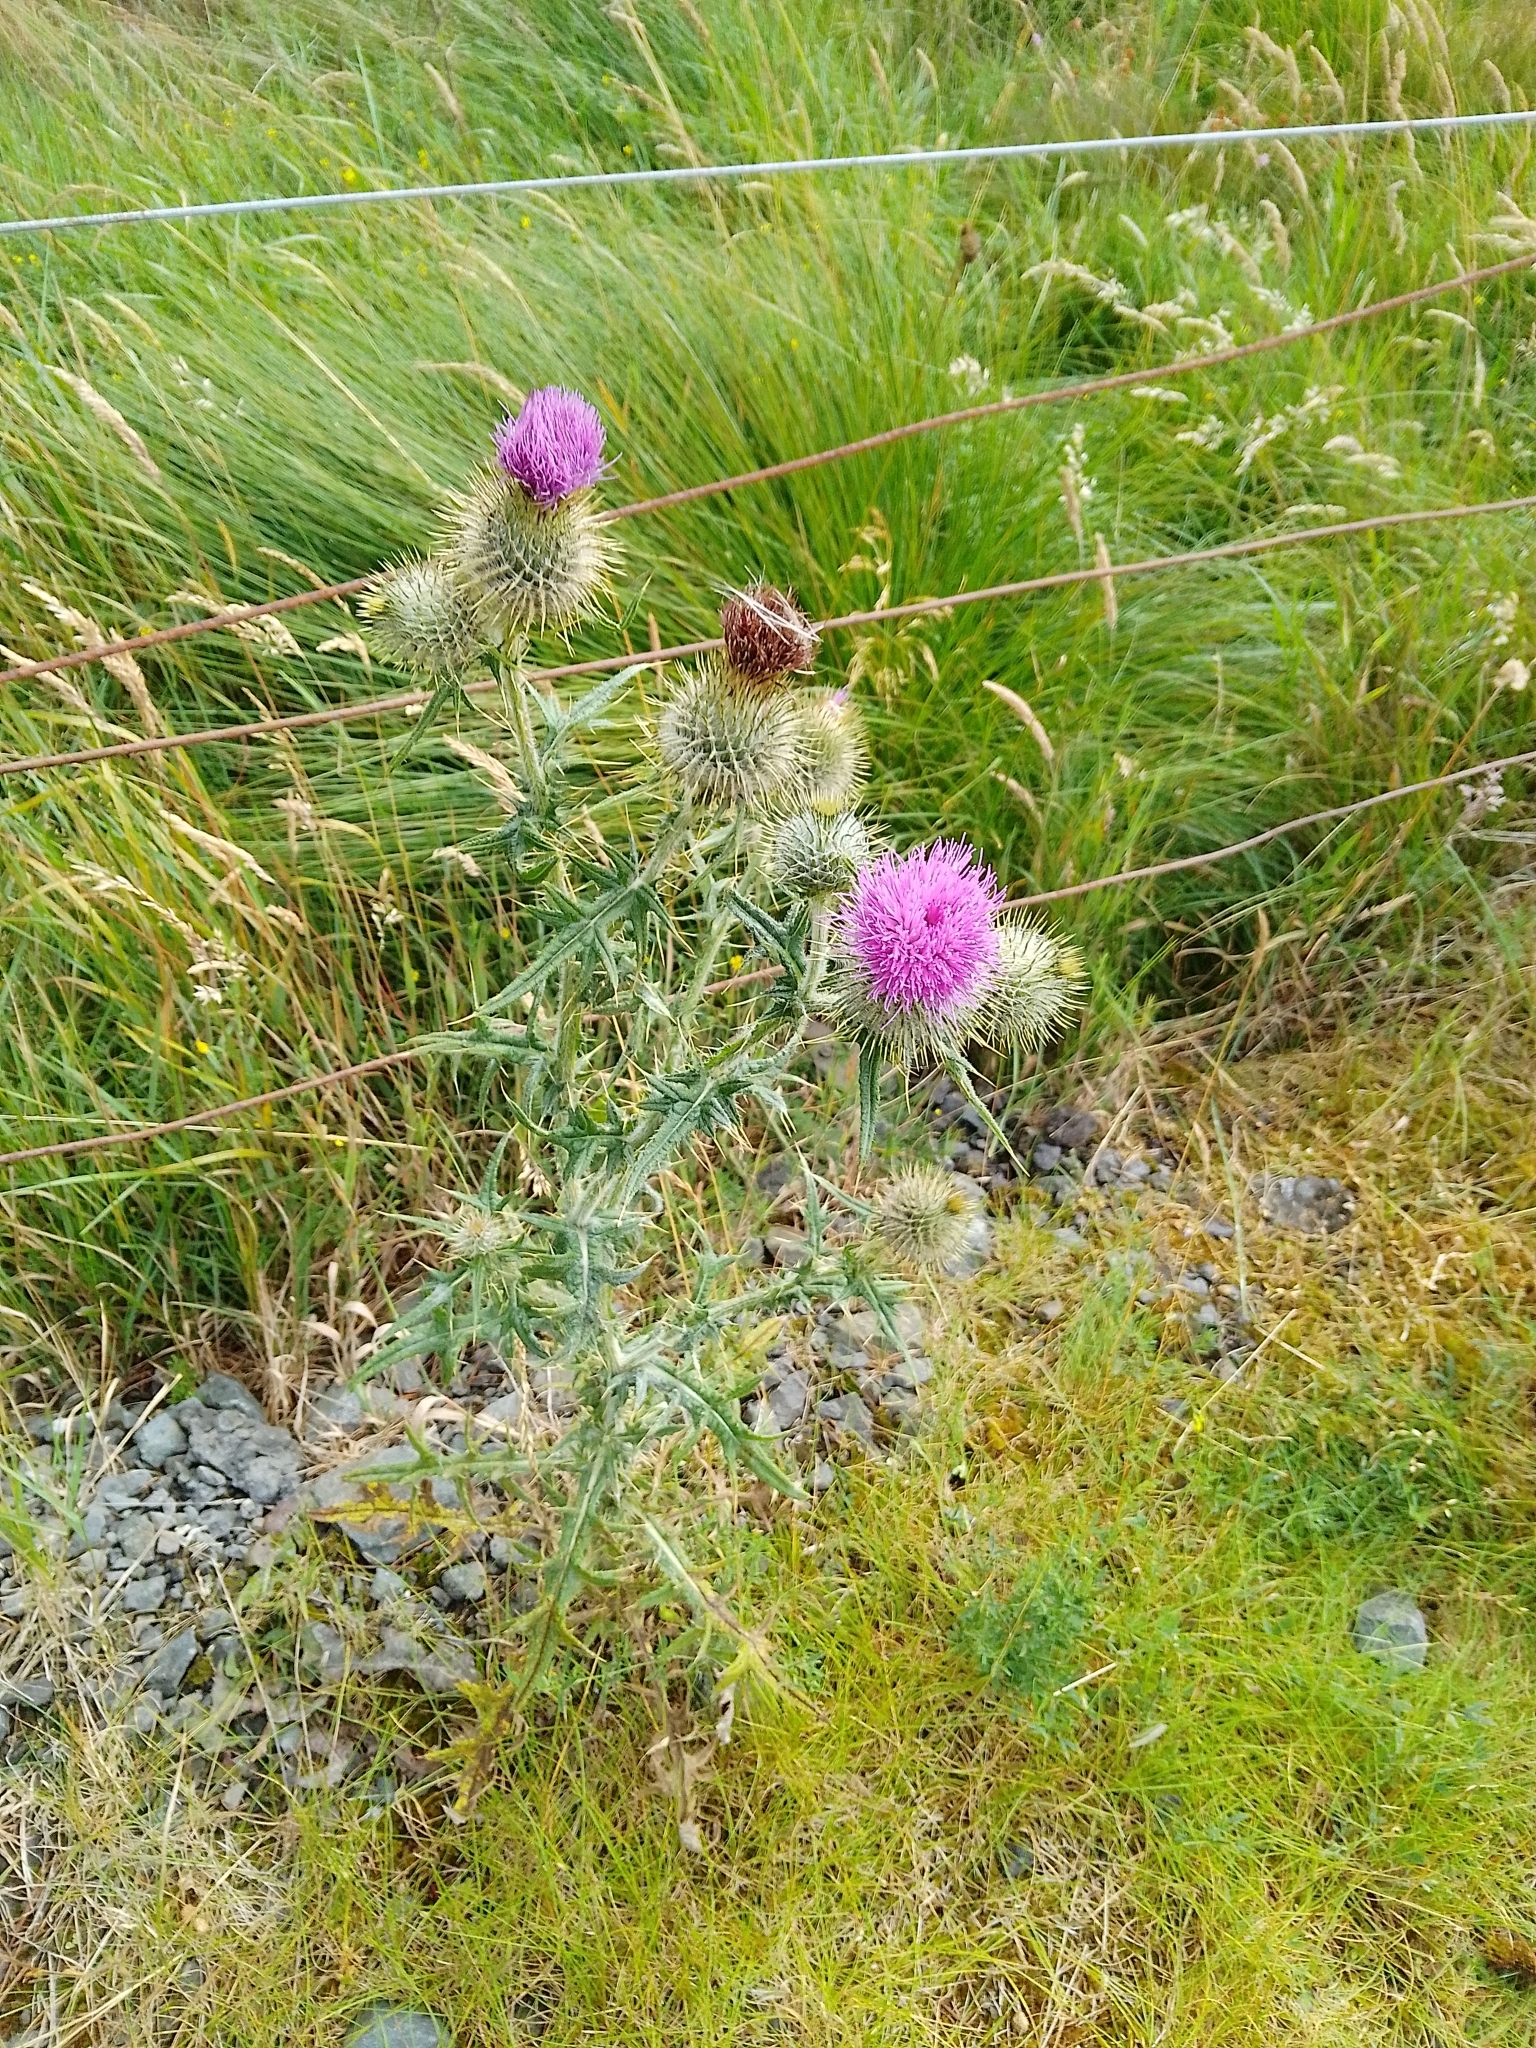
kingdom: Plantae
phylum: Tracheophyta
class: Magnoliopsida
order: Asterales
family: Asteraceae
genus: Cirsium
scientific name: Cirsium vulgare
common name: Bull thistle
